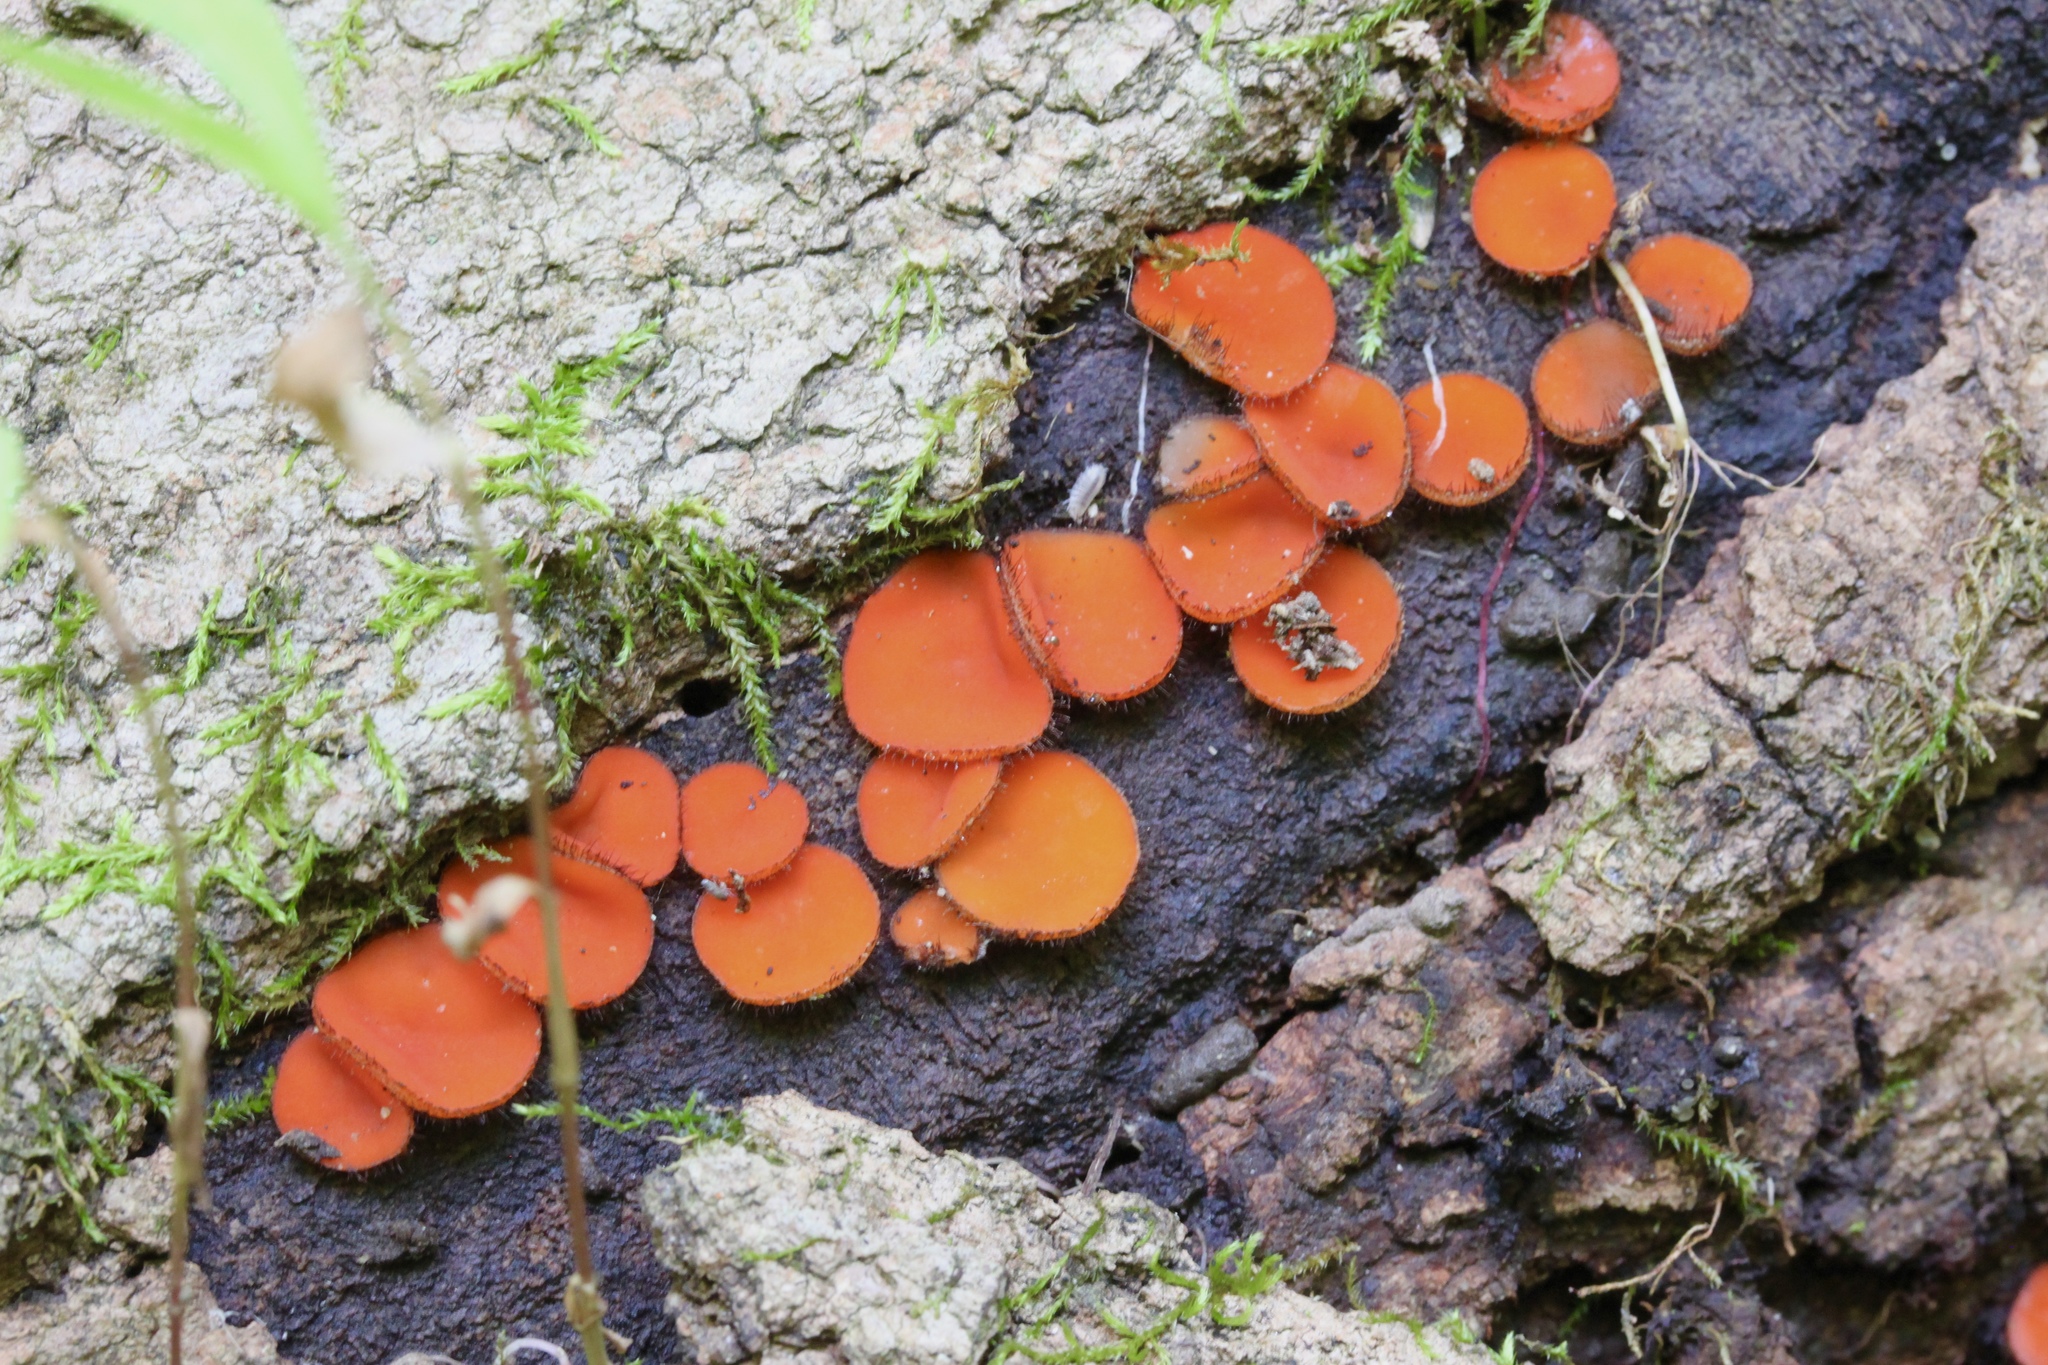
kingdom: Fungi
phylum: Ascomycota
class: Pezizomycetes
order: Pezizales
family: Pyronemataceae
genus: Scutellinia
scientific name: Scutellinia
